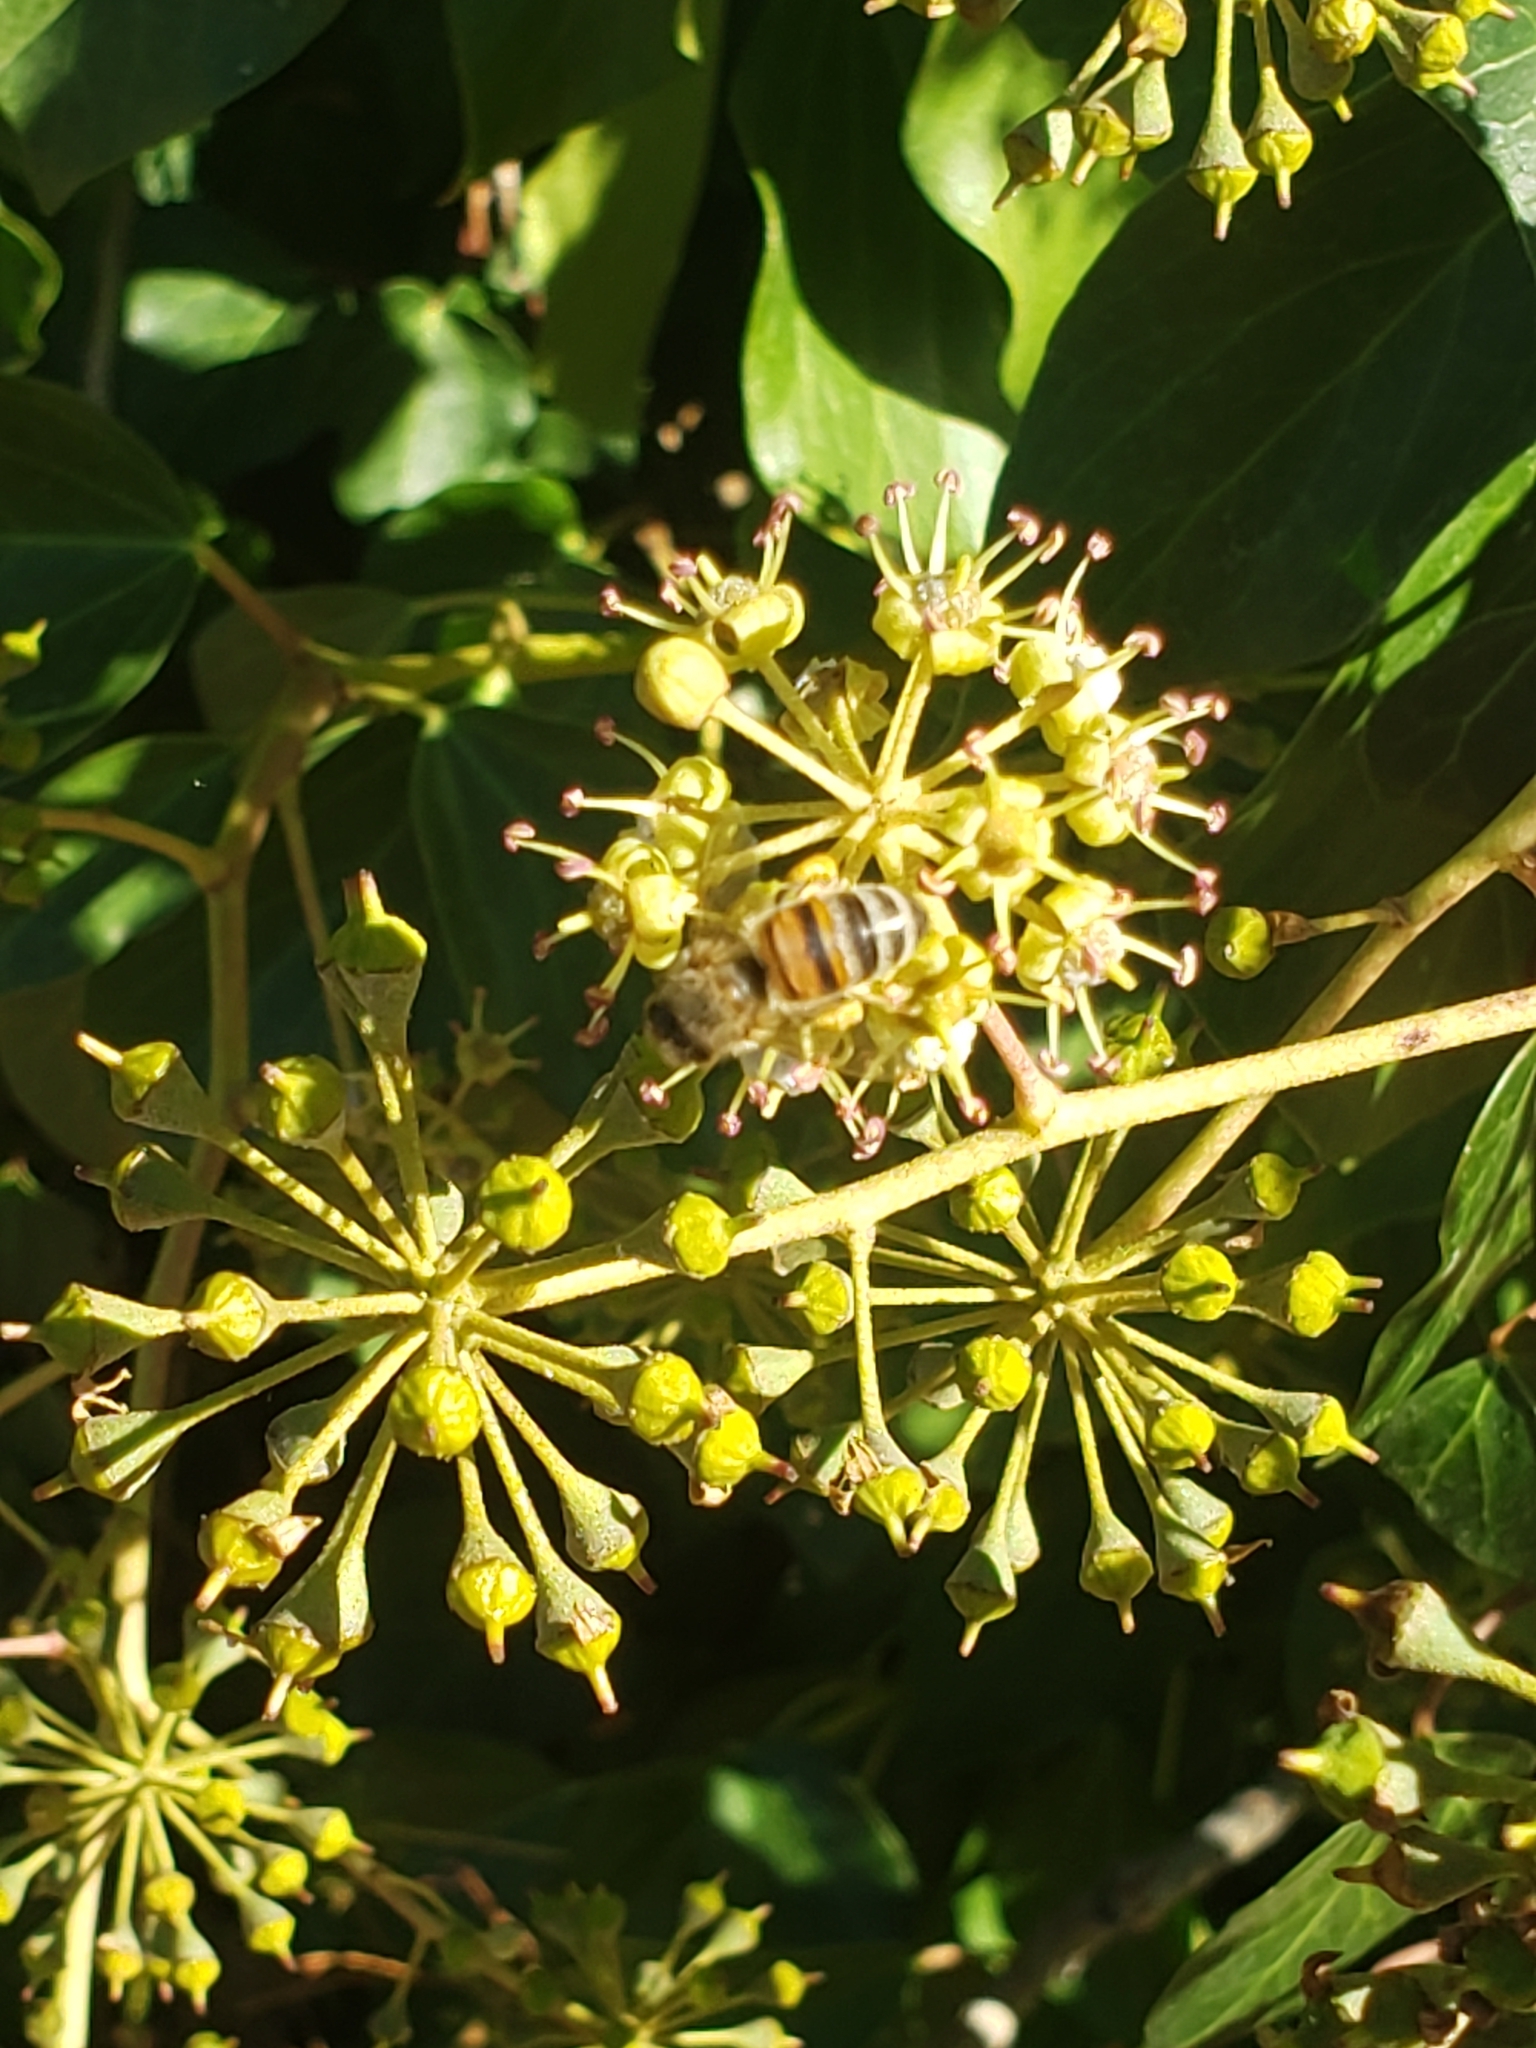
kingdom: Animalia
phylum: Arthropoda
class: Insecta
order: Hymenoptera
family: Apidae
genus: Apis
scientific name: Apis mellifera
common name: Honey bee
